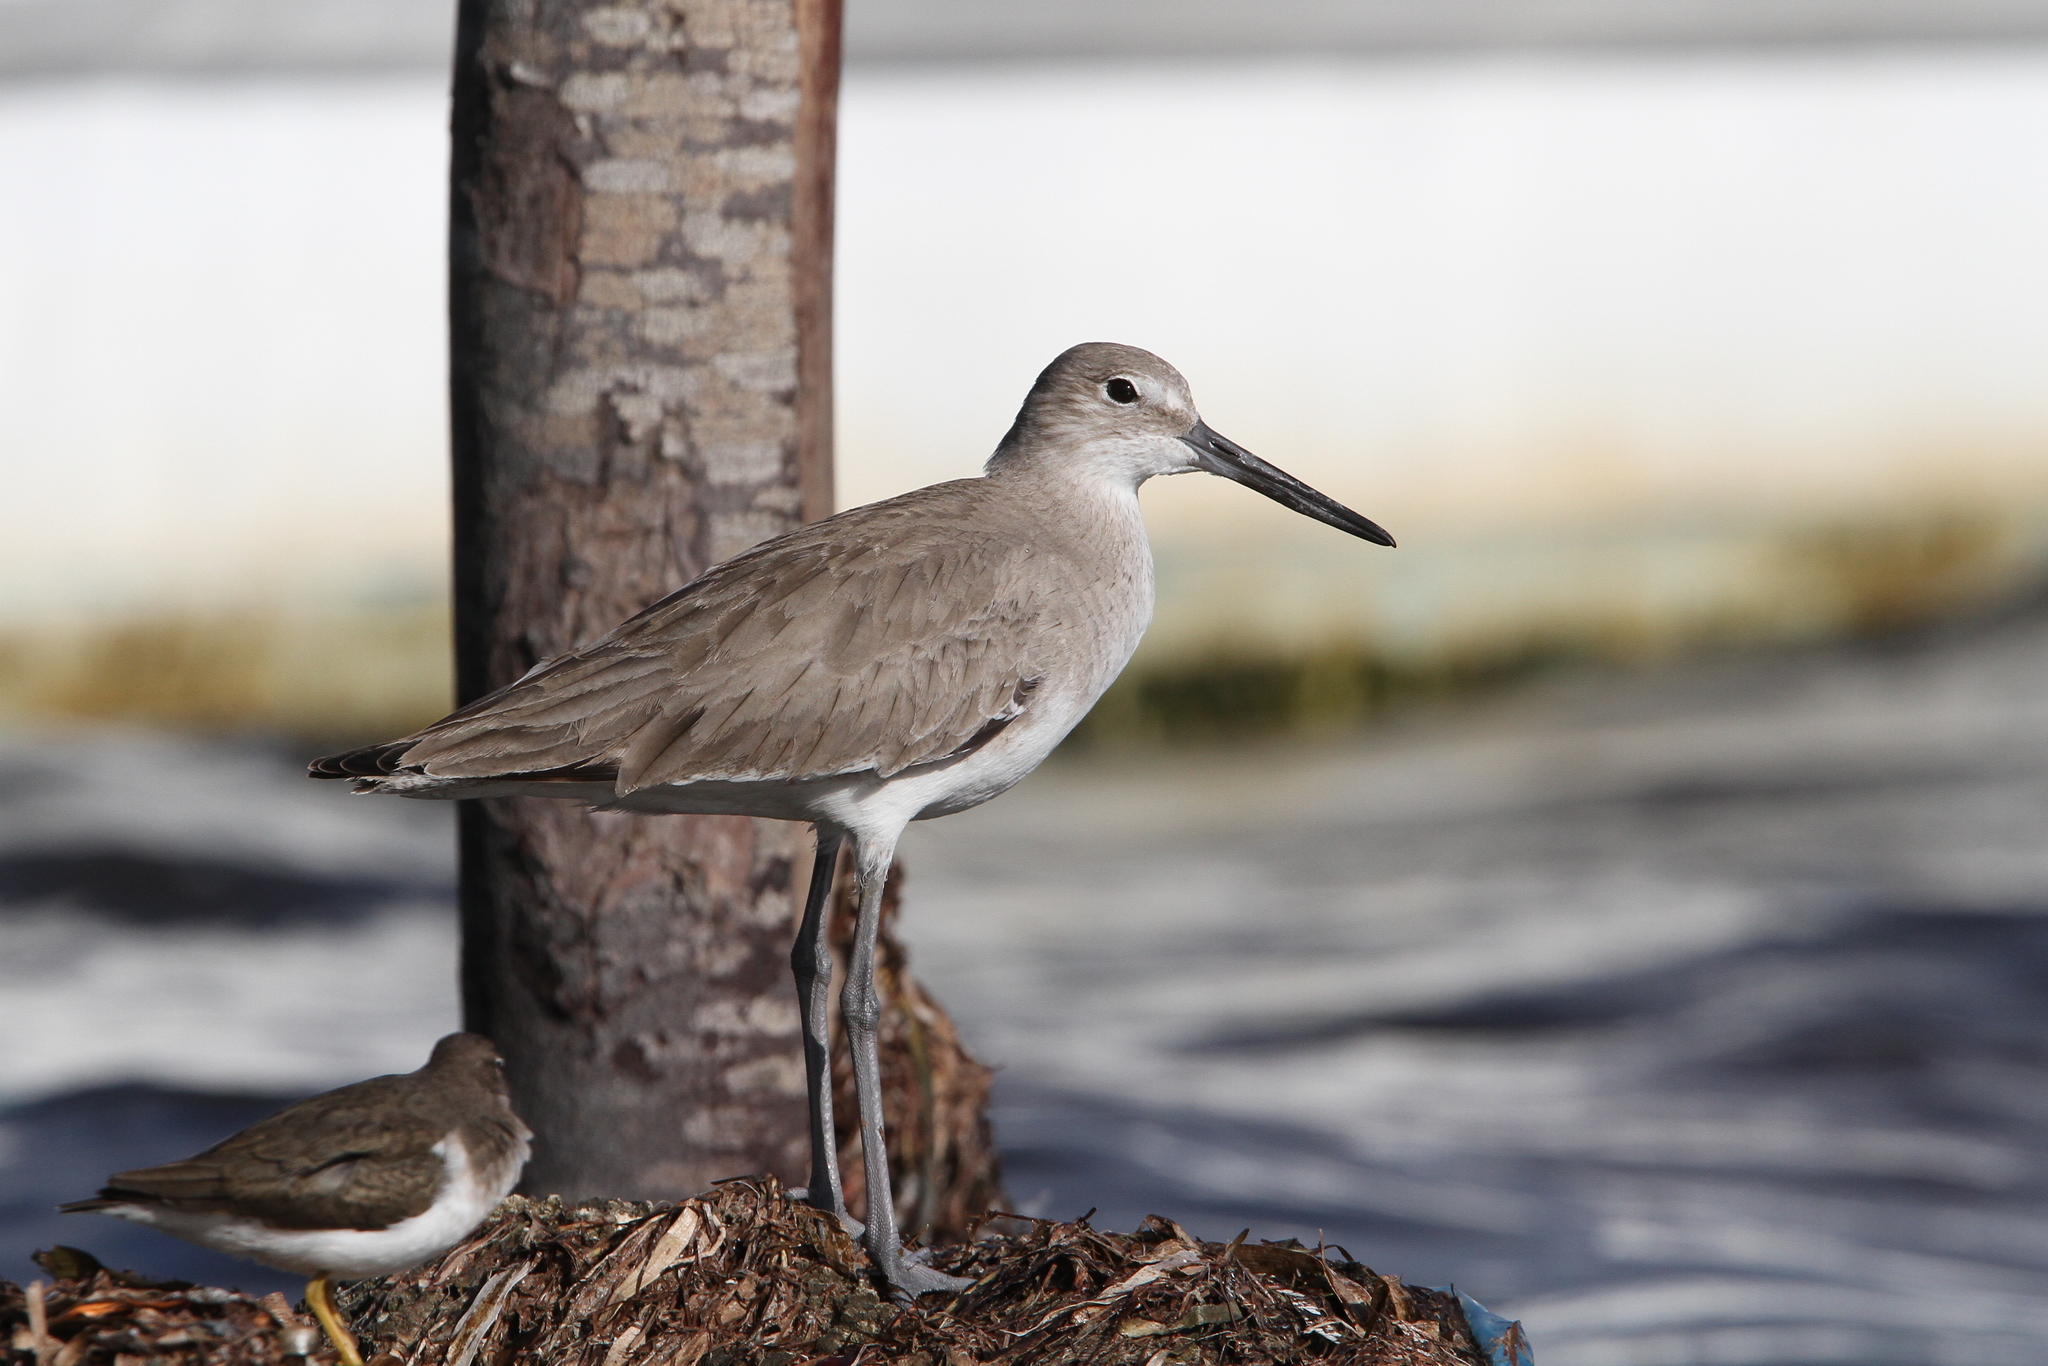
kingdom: Animalia
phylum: Chordata
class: Aves
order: Charadriiformes
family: Scolopacidae
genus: Tringa
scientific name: Tringa semipalmata
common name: Willet
